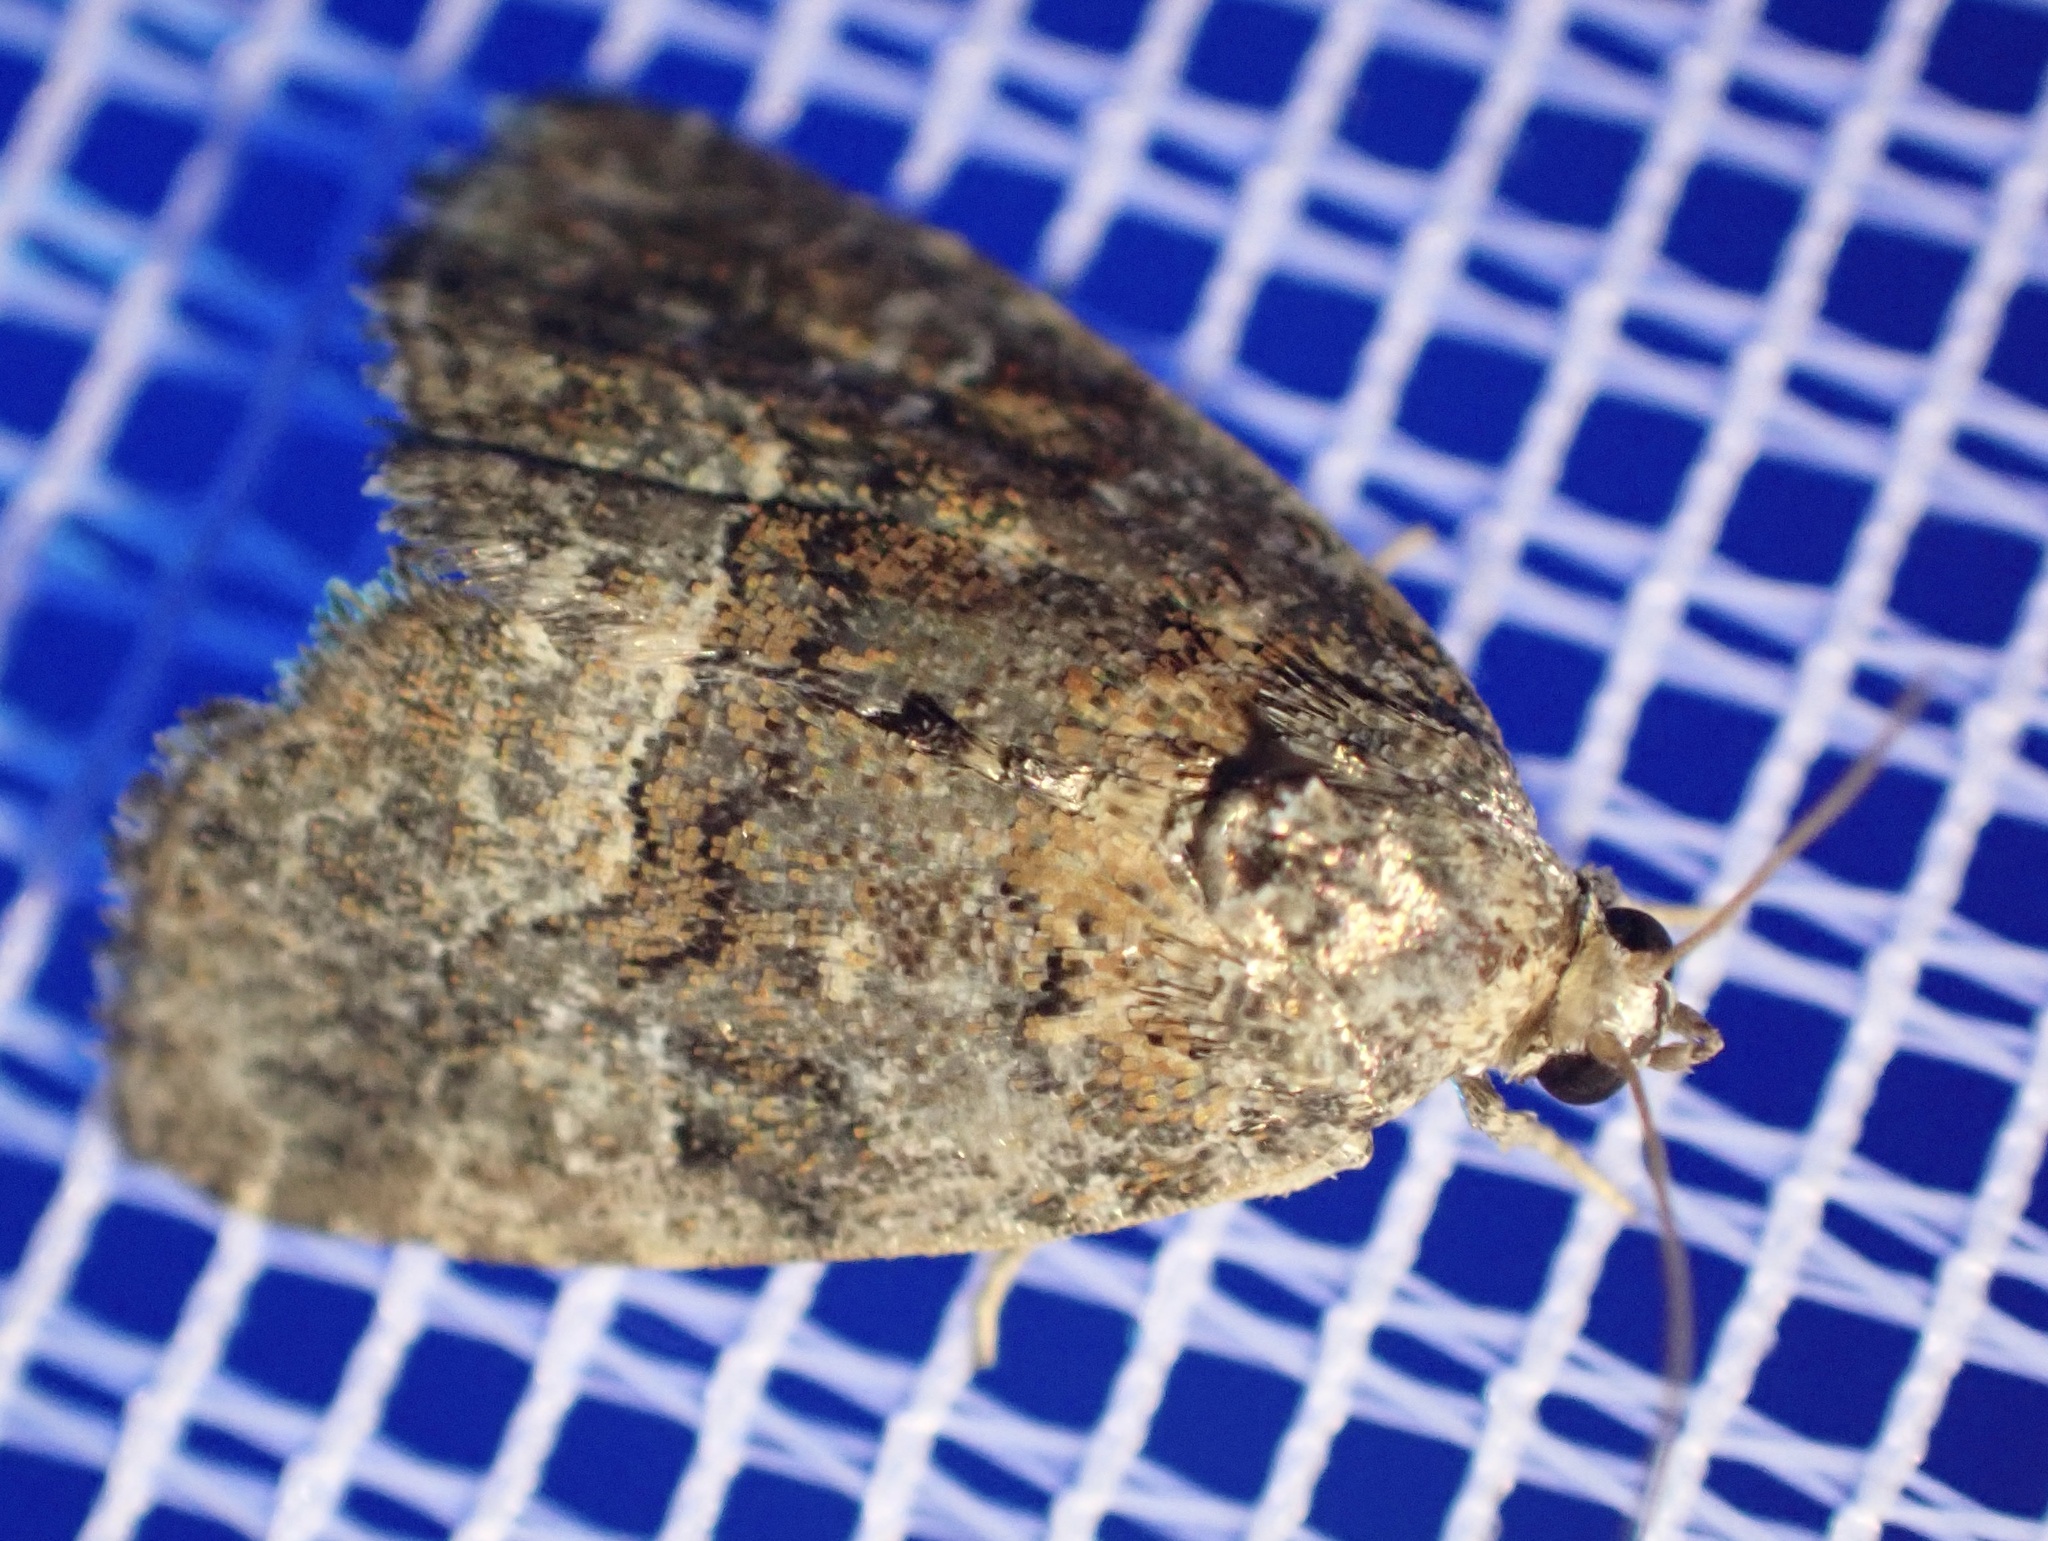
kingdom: Animalia
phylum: Arthropoda
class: Insecta
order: Lepidoptera
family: Noctuidae
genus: Deltote
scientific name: Deltote pygarga
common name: Marbled white spot
